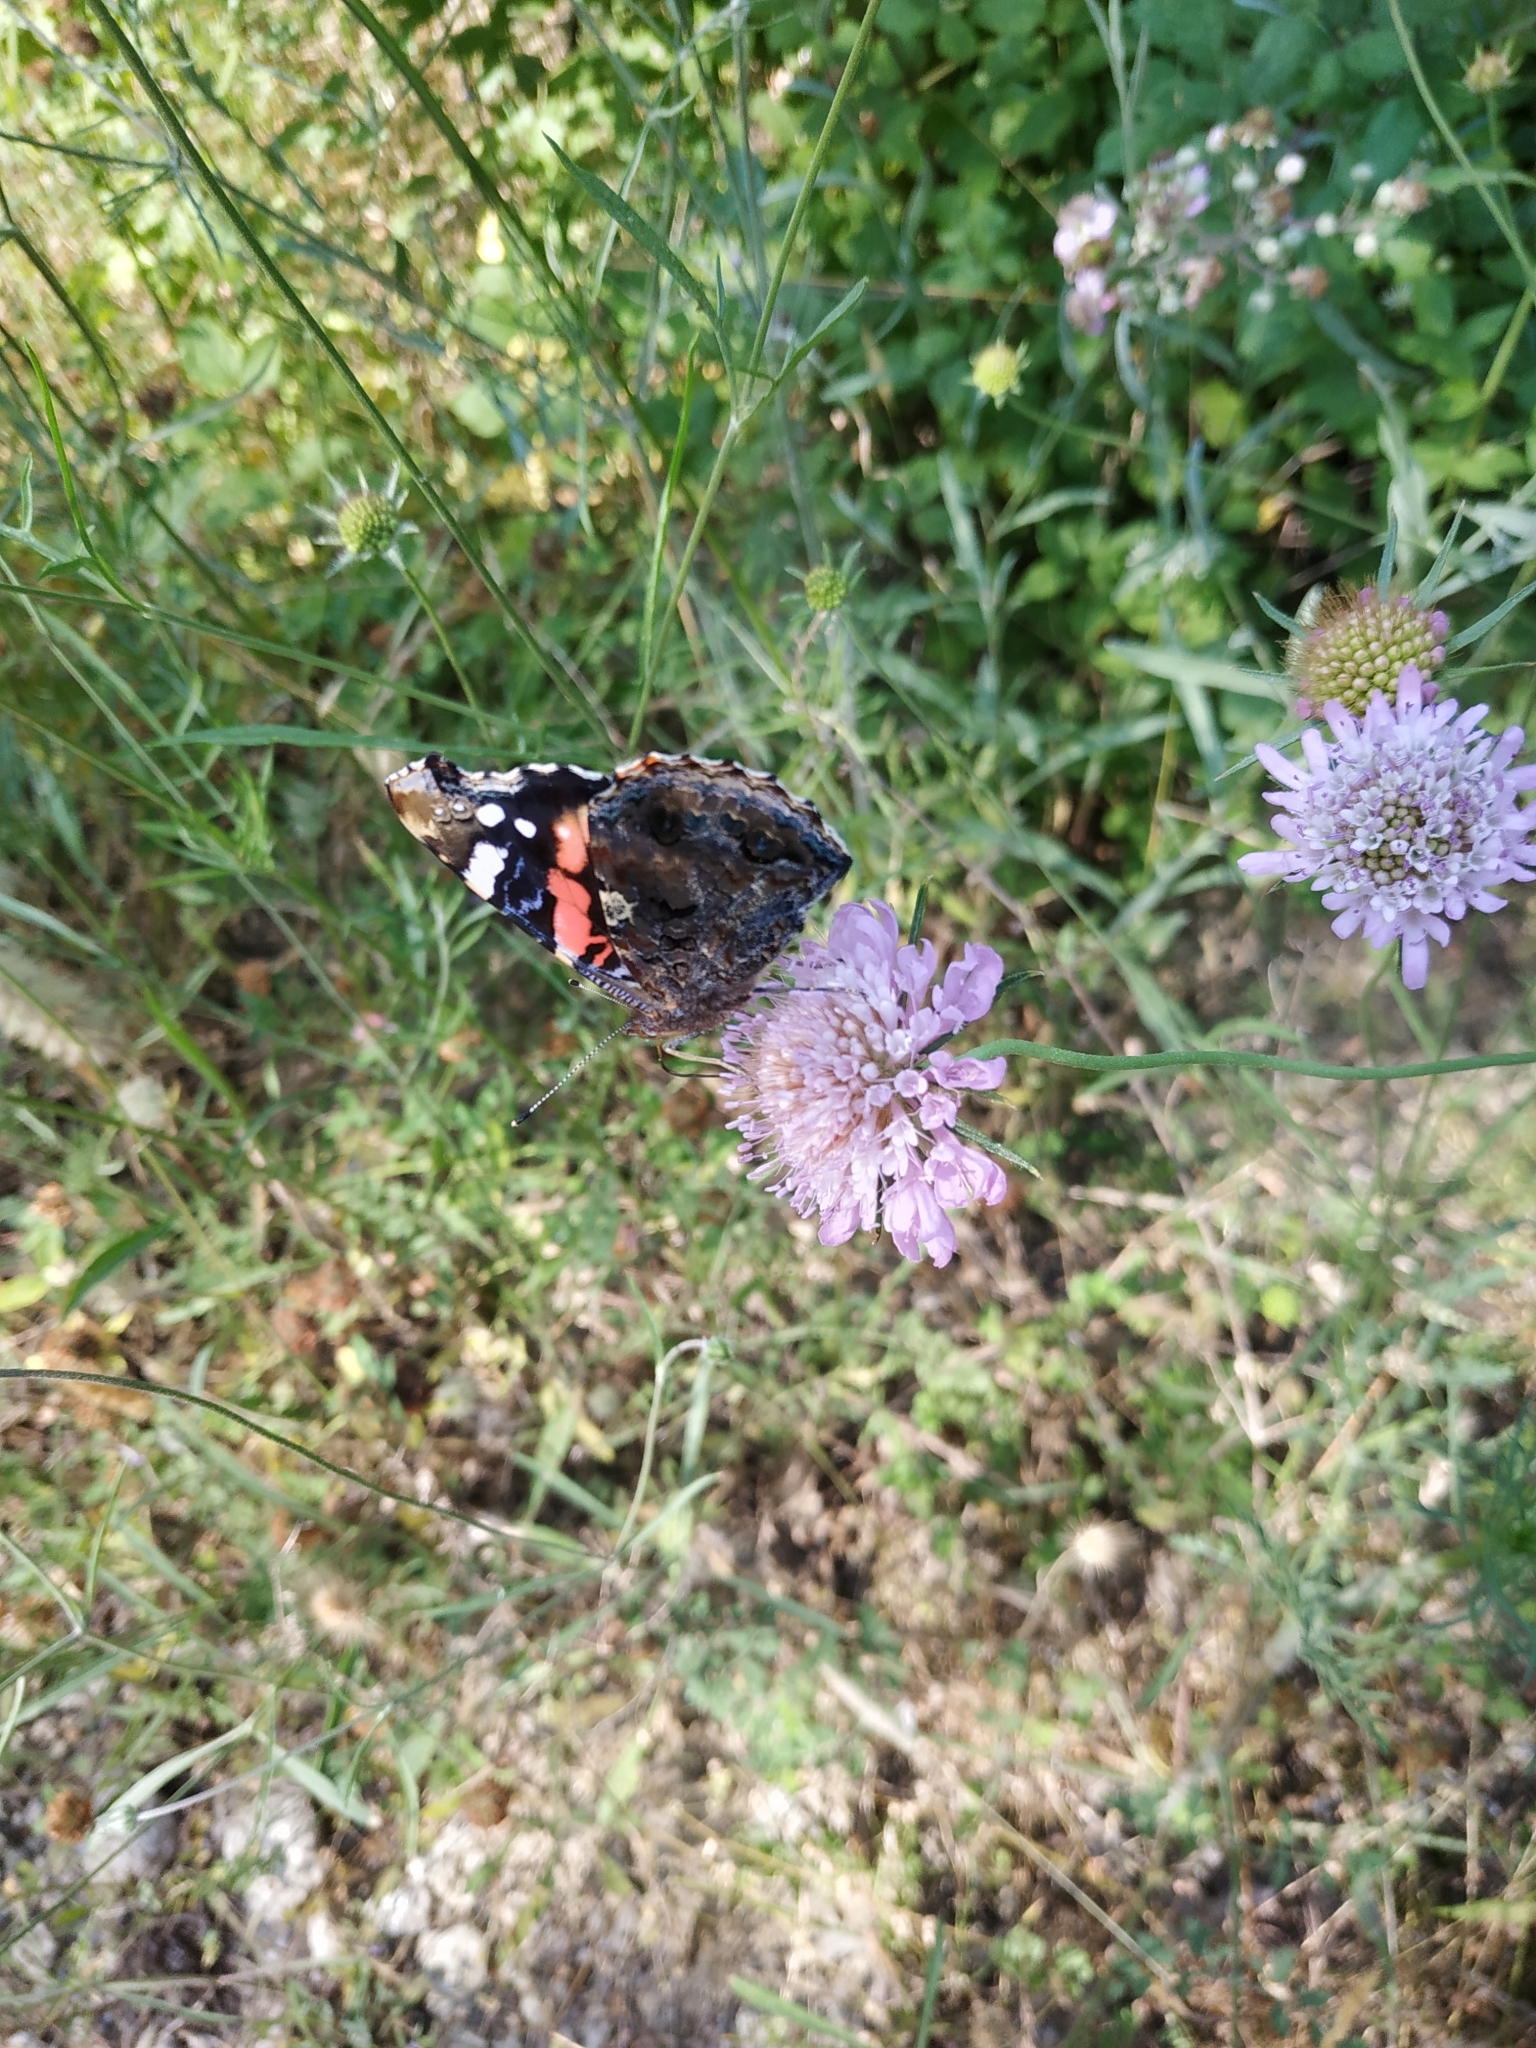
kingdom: Animalia
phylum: Arthropoda
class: Insecta
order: Lepidoptera
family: Nymphalidae
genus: Vanessa
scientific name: Vanessa atalanta
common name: Red admiral
